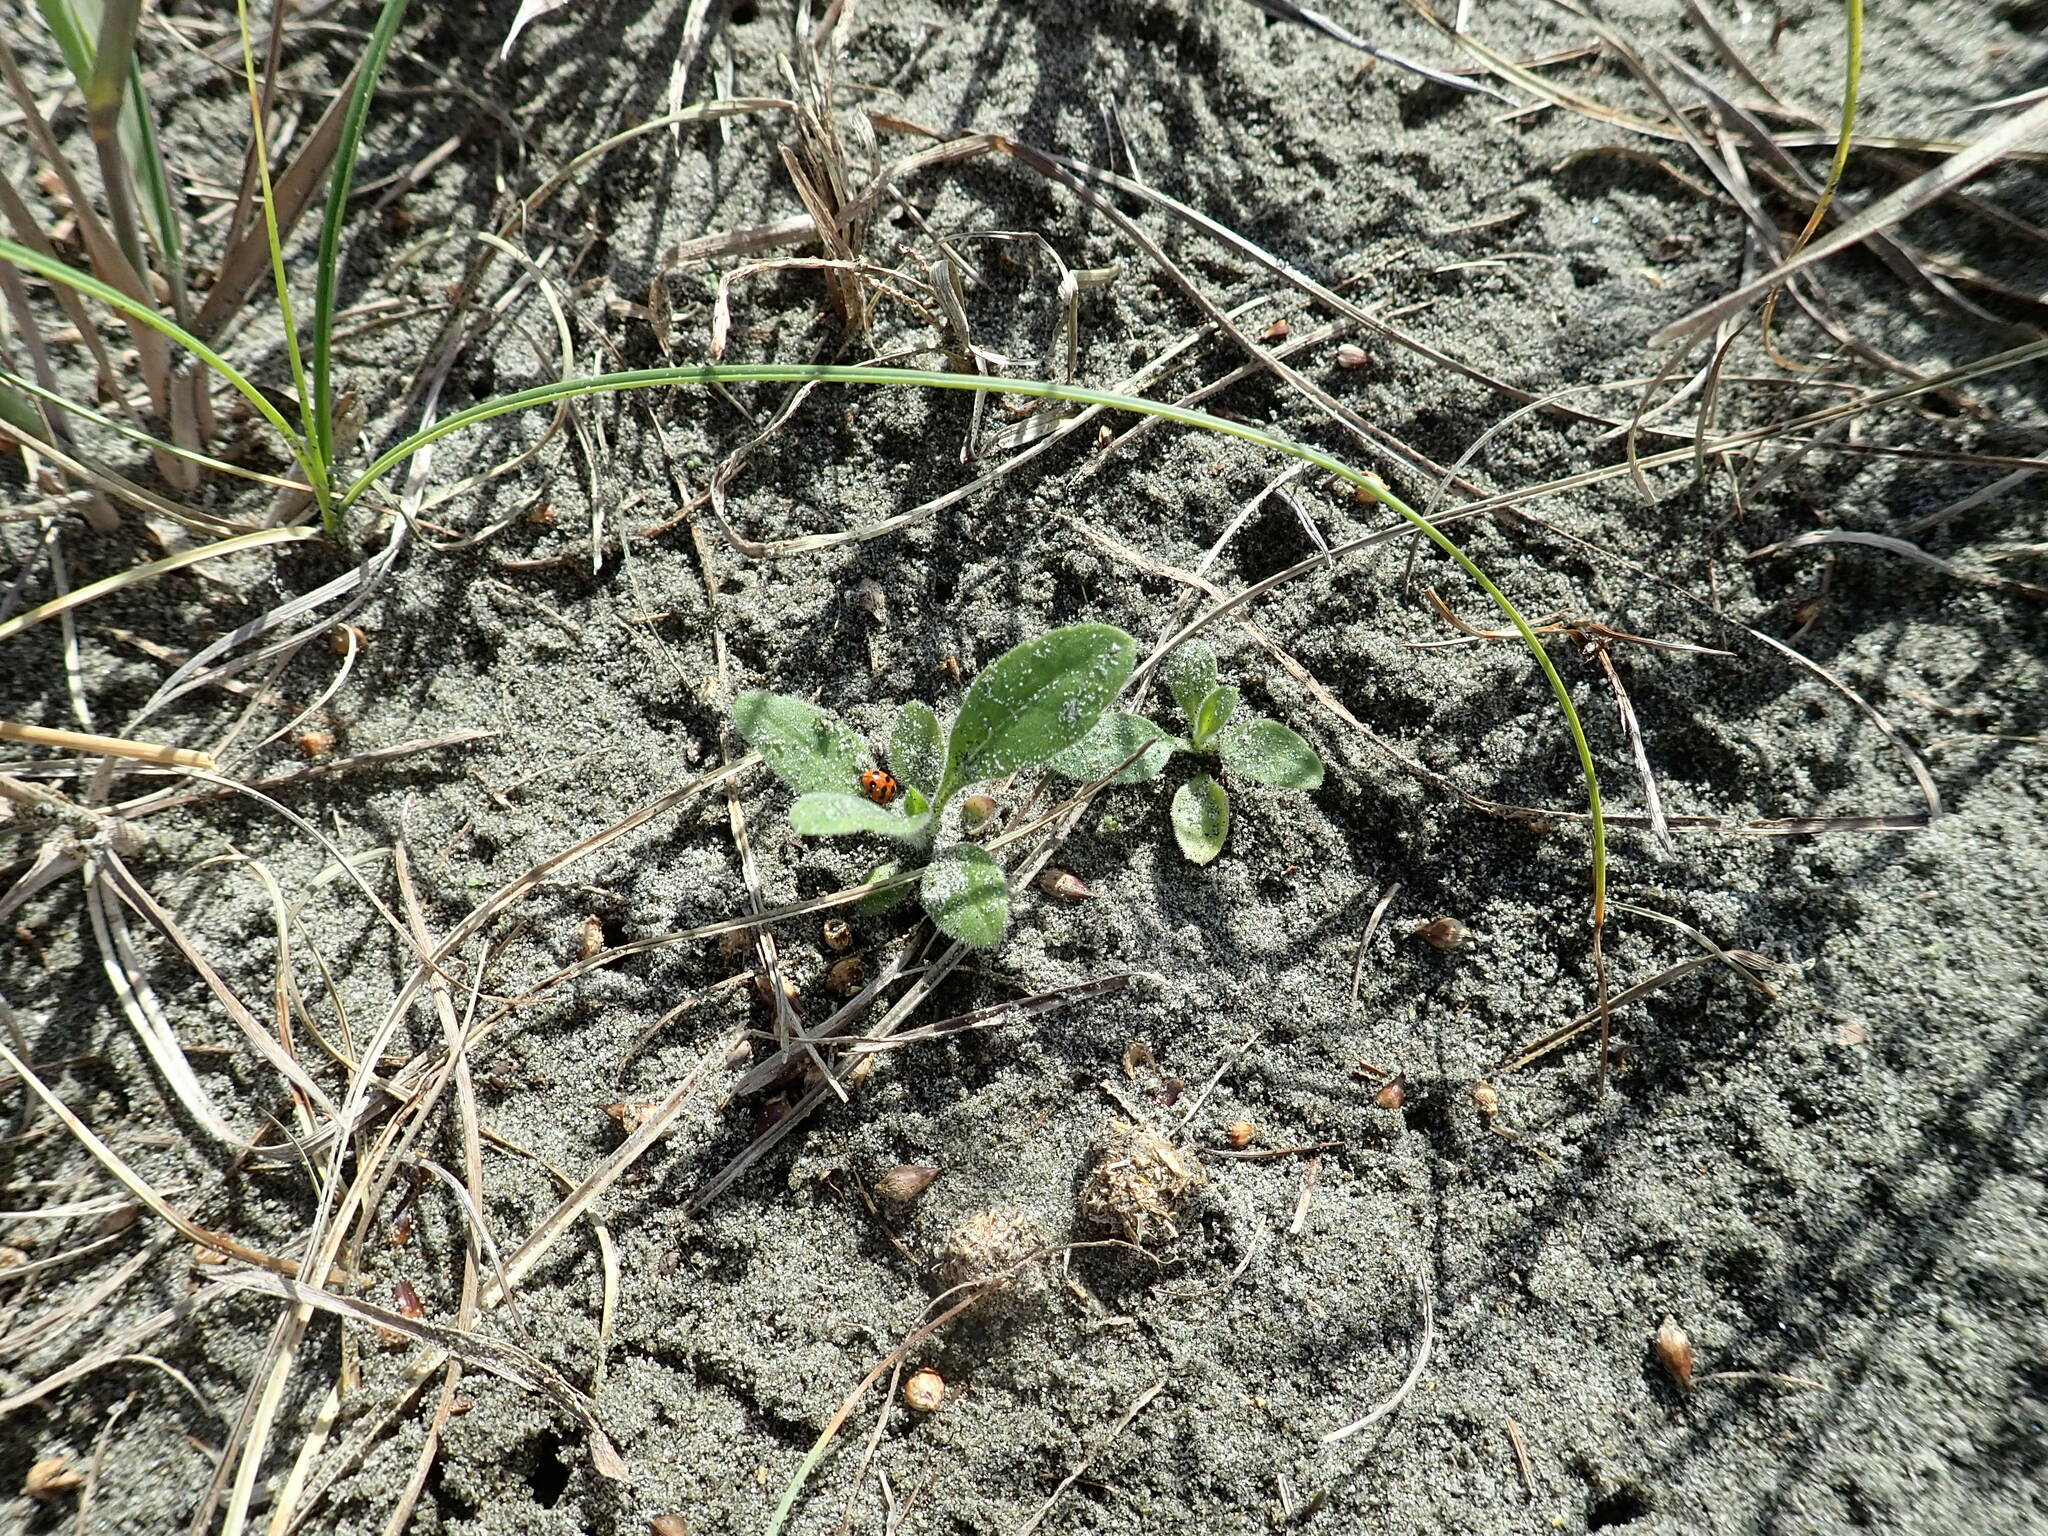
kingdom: Animalia
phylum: Arthropoda
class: Insecta
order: Coleoptera
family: Coccinellidae
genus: Coccinella
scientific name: Coccinella undecimpunctata
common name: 11-spot ladybird
